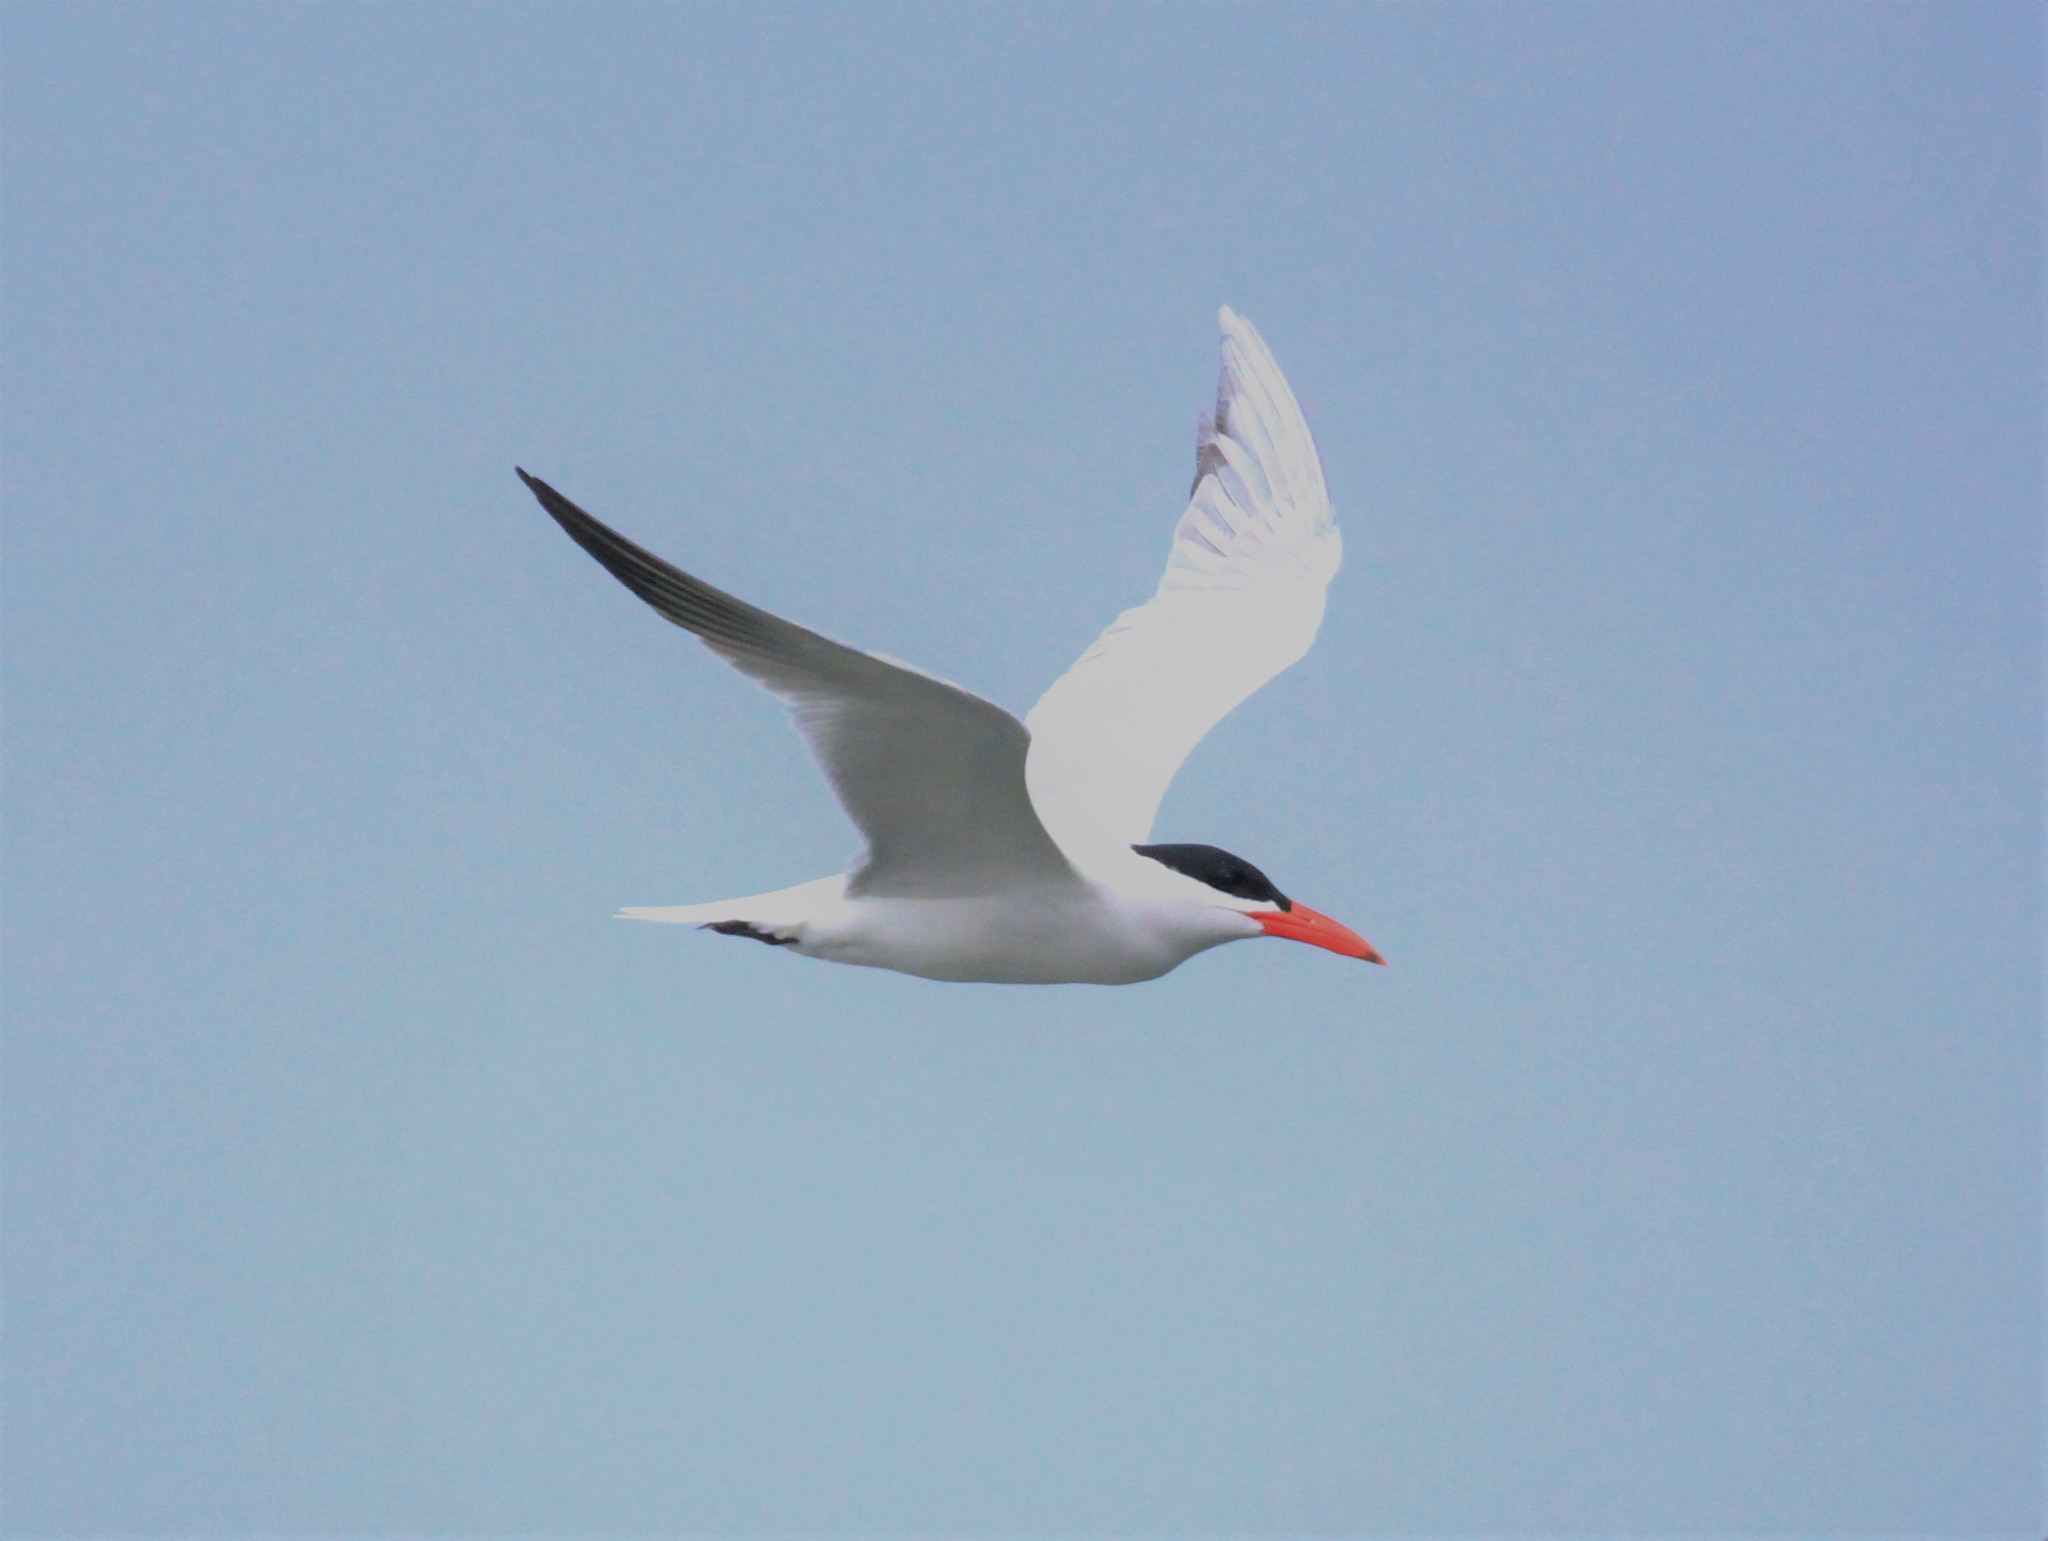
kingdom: Animalia
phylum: Chordata
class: Aves
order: Charadriiformes
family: Laridae
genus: Hydroprogne
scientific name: Hydroprogne caspia
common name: Caspian tern
